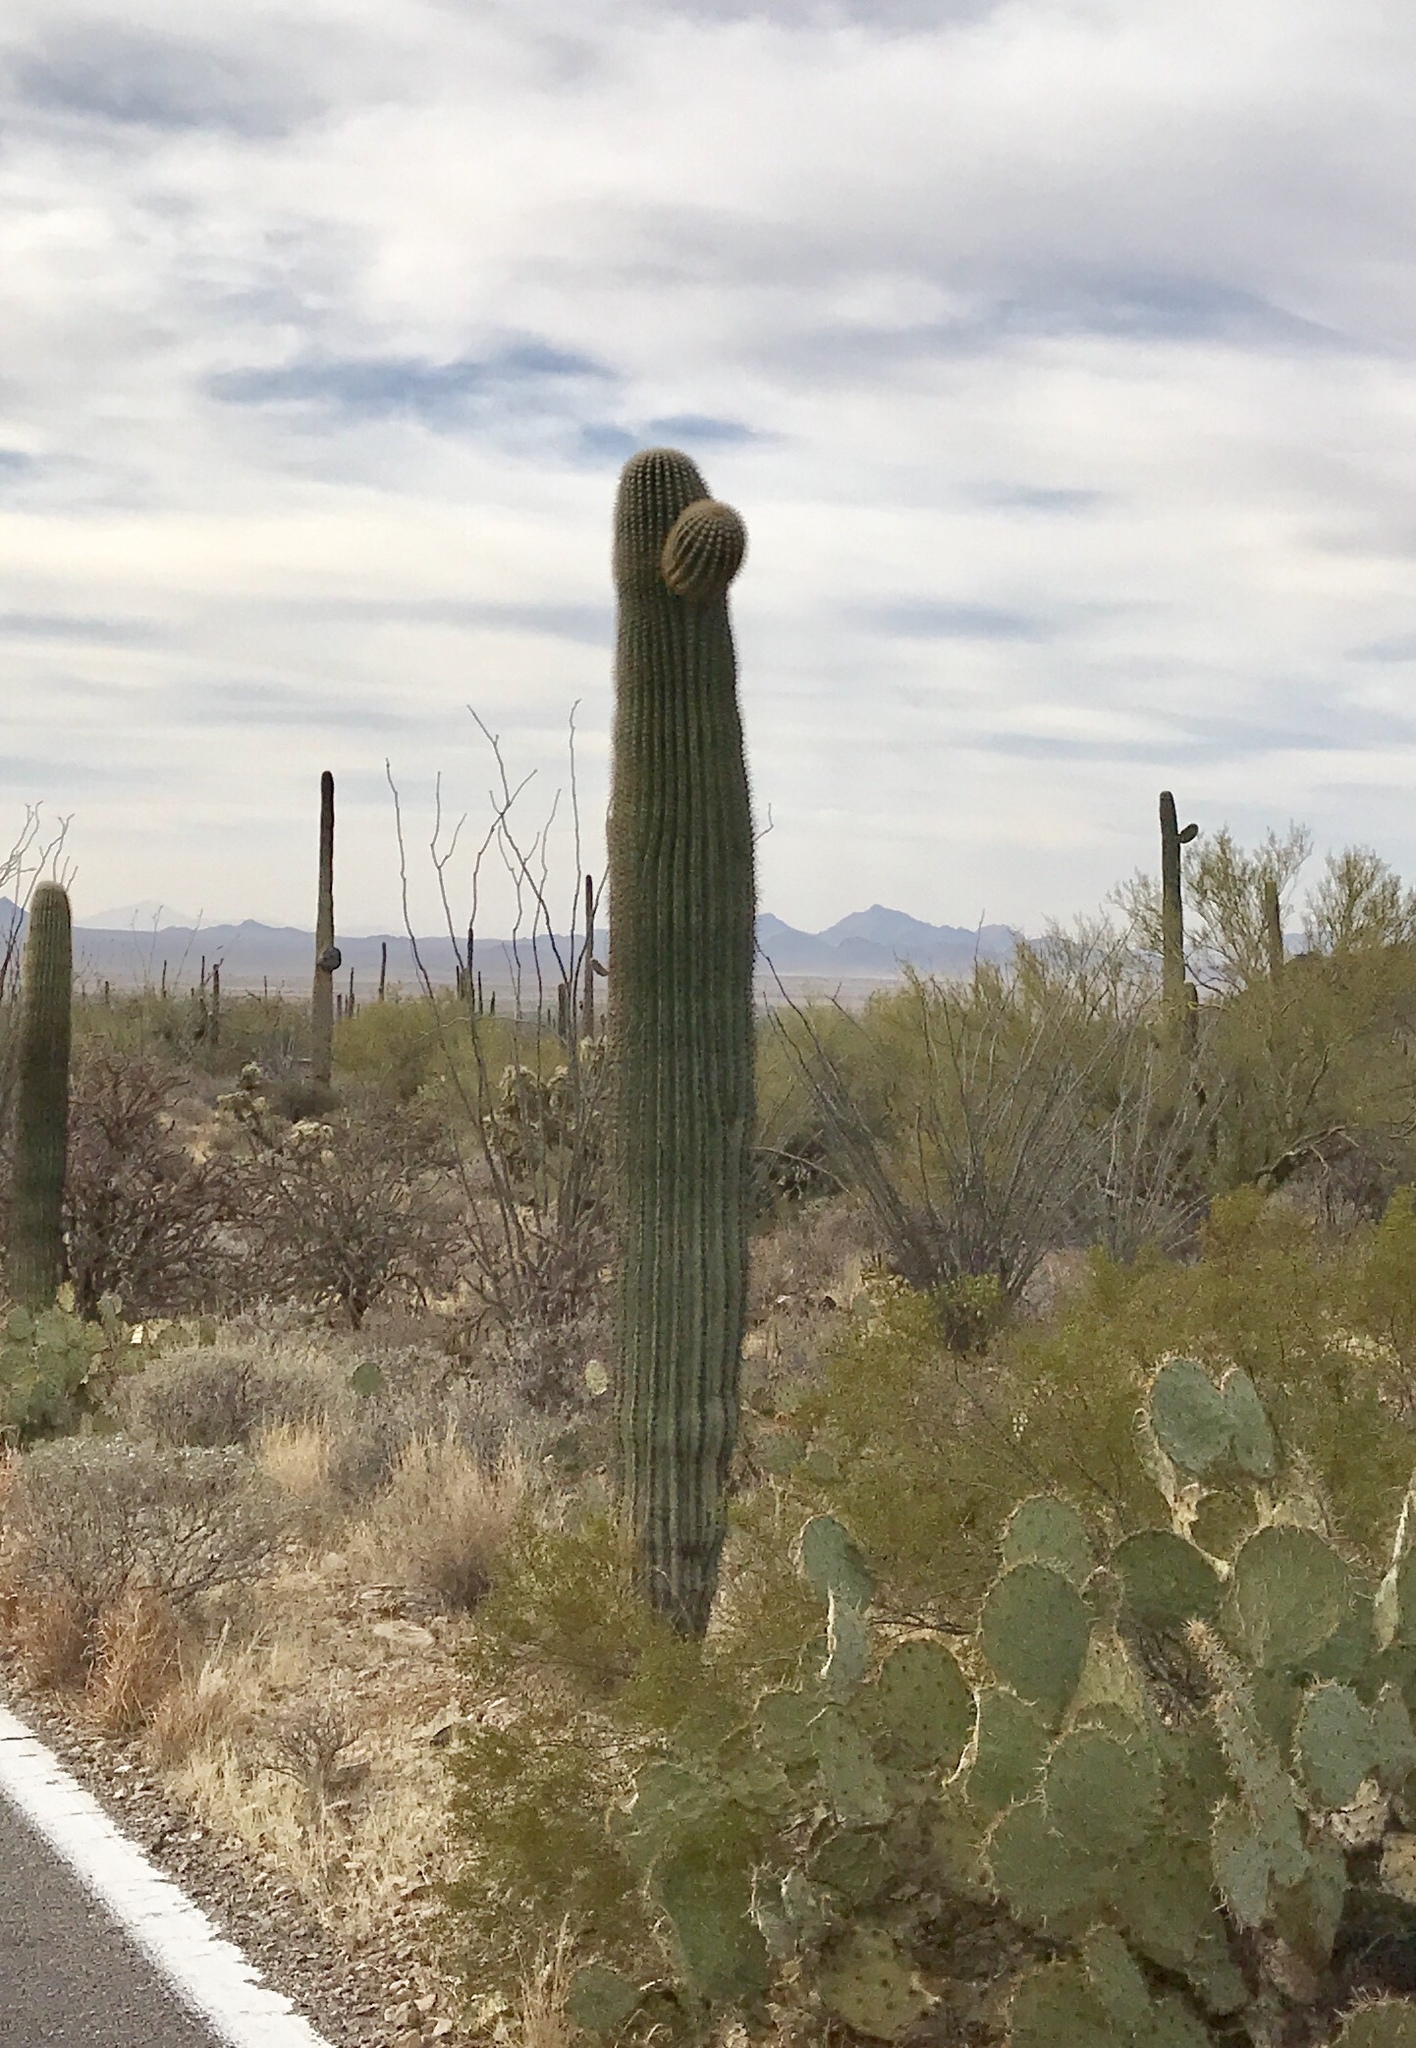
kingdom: Plantae
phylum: Tracheophyta
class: Magnoliopsida
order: Caryophyllales
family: Cactaceae
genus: Carnegiea
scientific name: Carnegiea gigantea
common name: Saguaro
